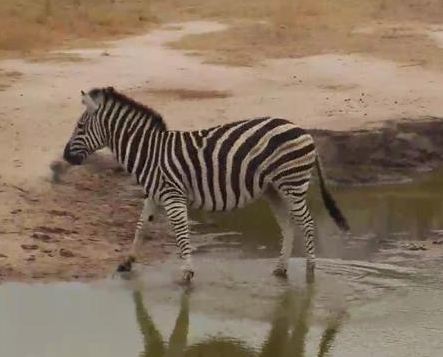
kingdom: Animalia
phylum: Chordata
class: Mammalia
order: Perissodactyla
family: Equidae
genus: Equus
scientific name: Equus quagga
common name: Plains zebra
